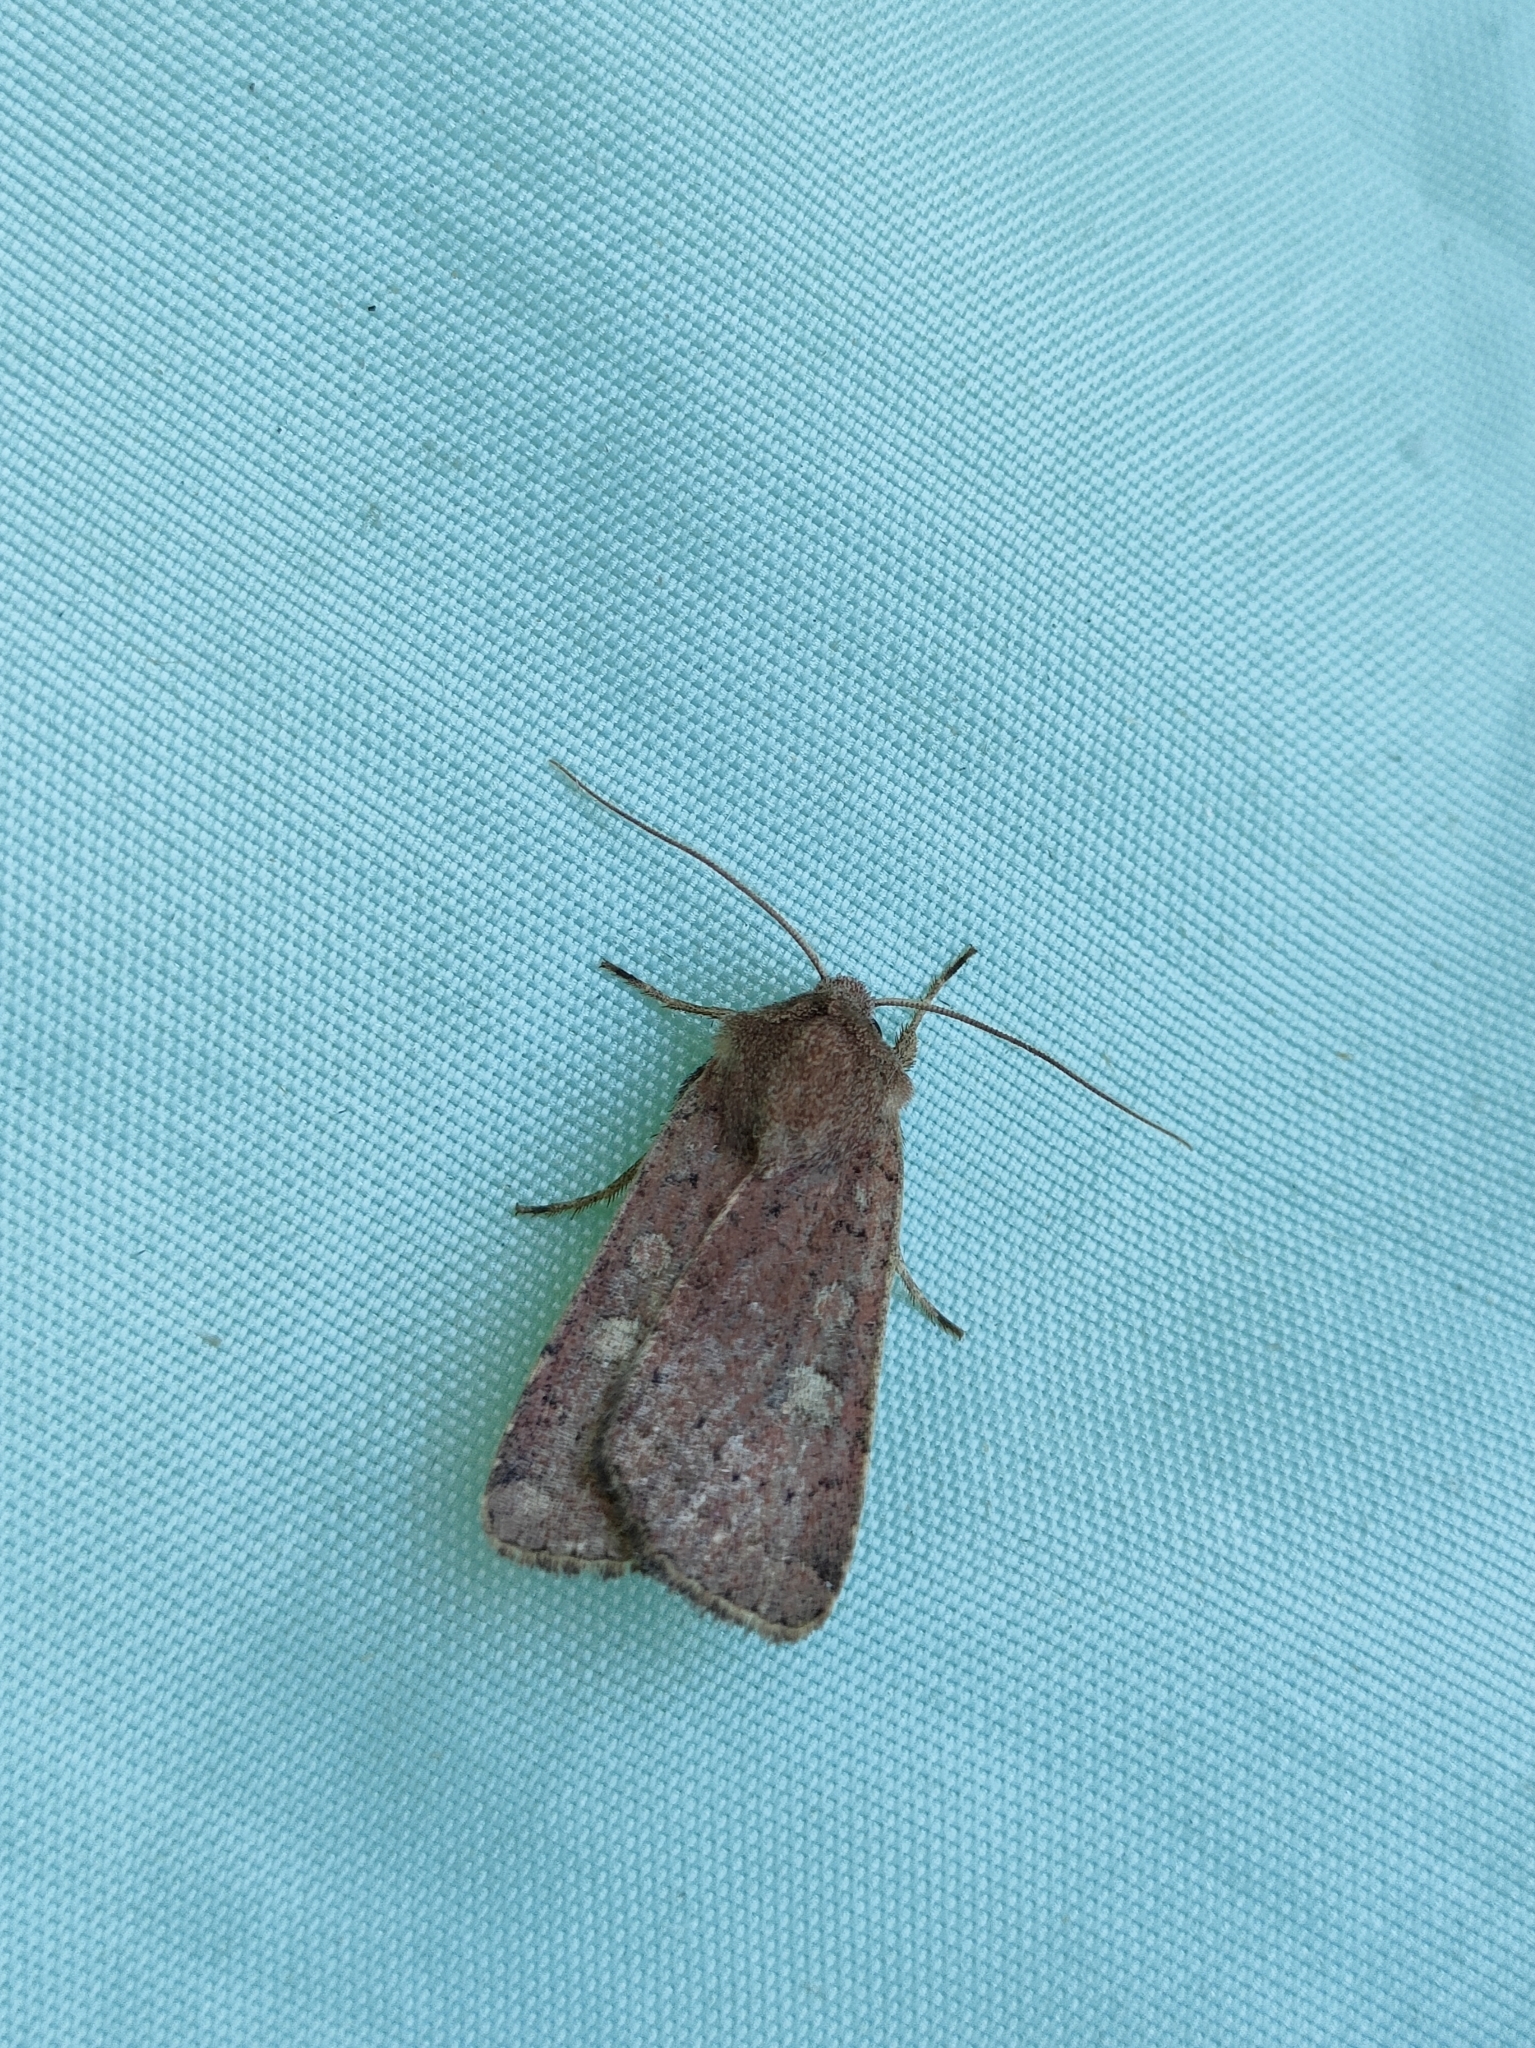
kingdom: Animalia
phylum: Arthropoda
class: Insecta
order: Lepidoptera
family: Noctuidae
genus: Xestia
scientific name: Xestia xanthographa
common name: Square-spot rustic
